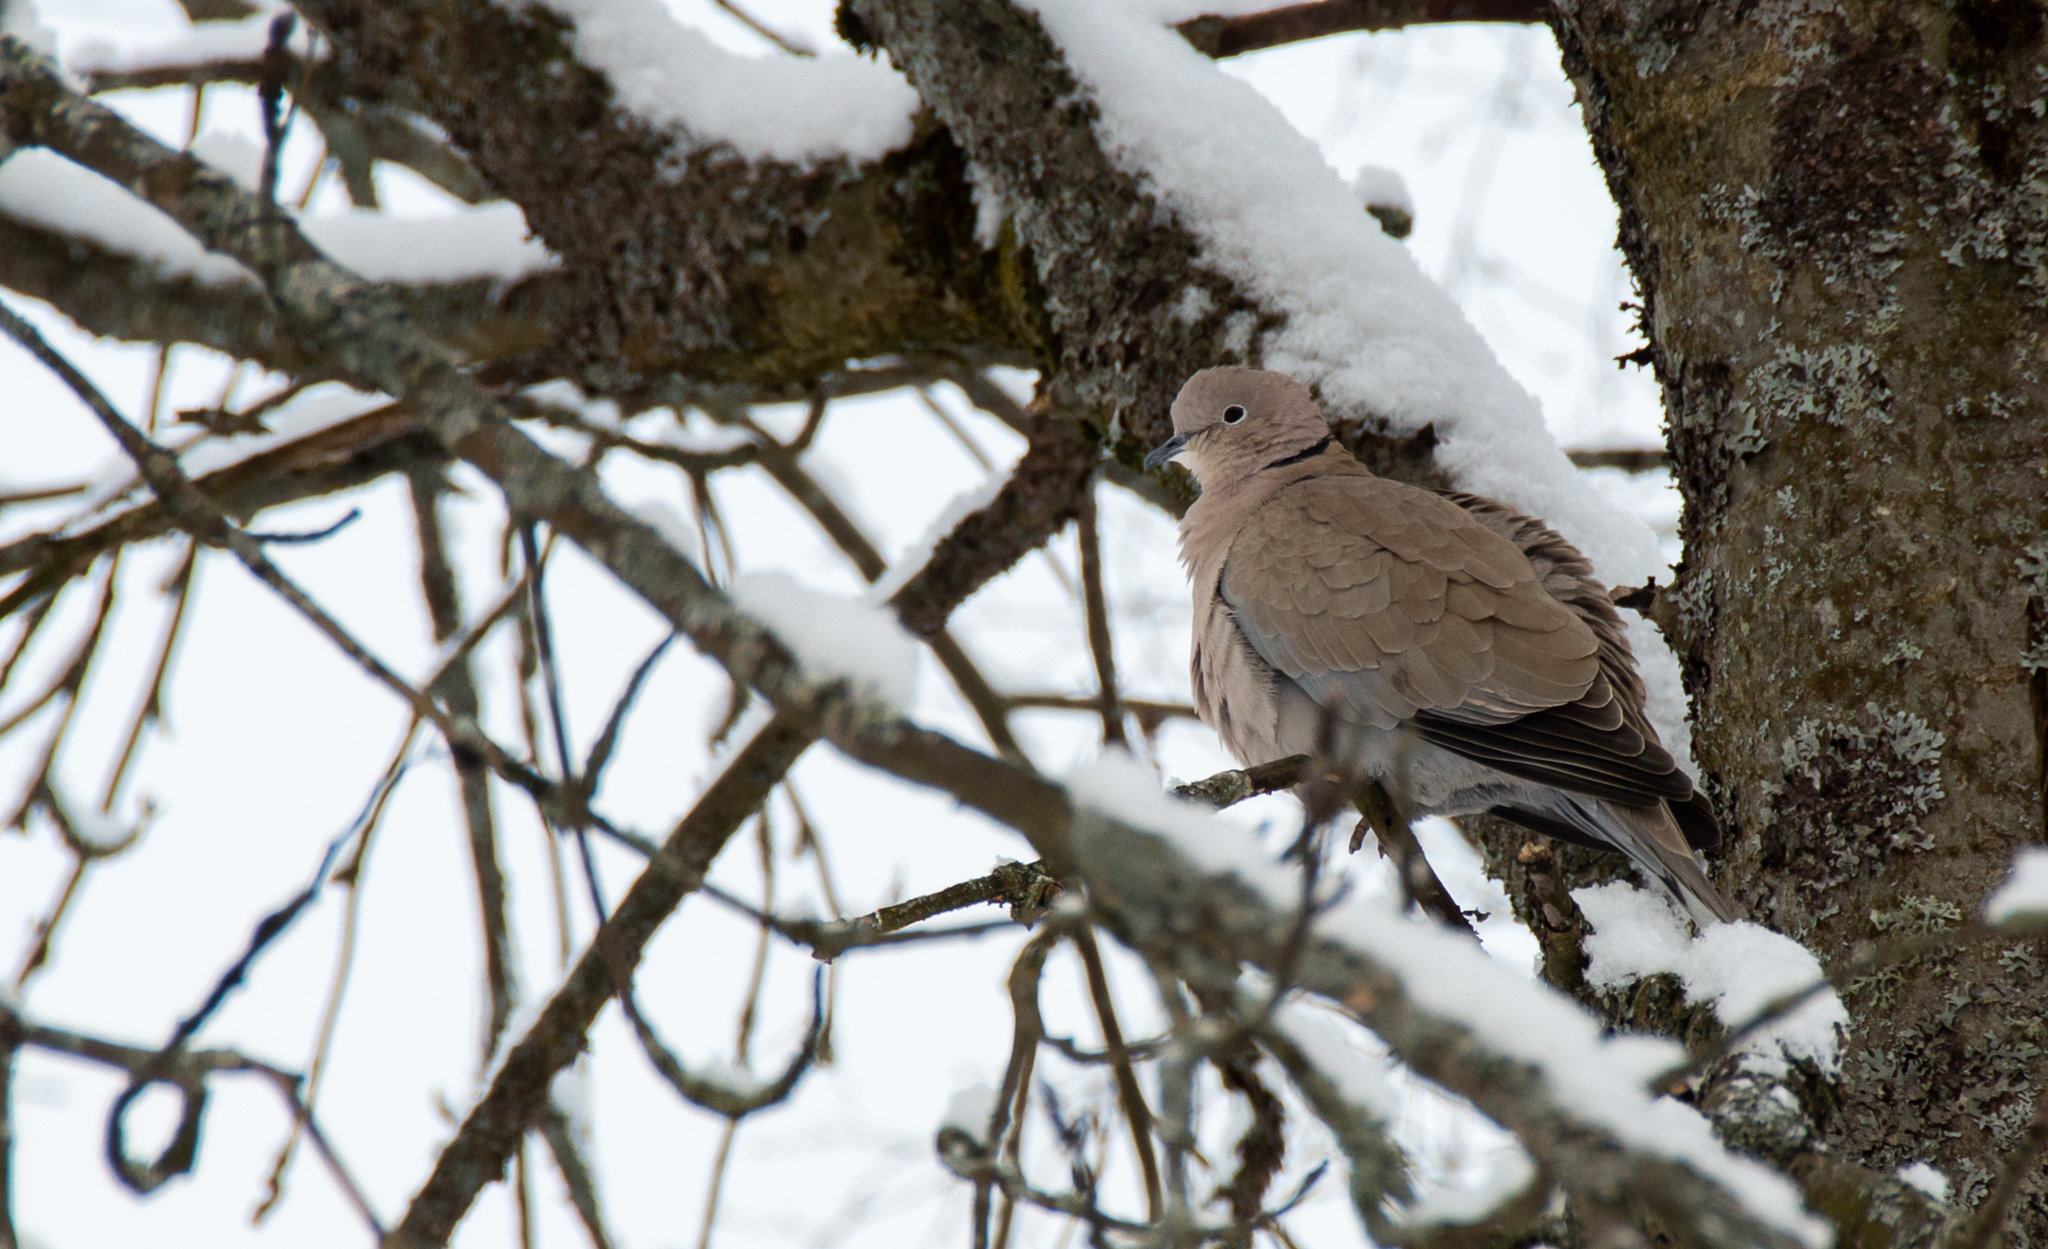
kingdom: Animalia
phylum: Chordata
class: Aves
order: Columbiformes
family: Columbidae
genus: Streptopelia
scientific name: Streptopelia decaocto
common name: Eurasian collared dove
